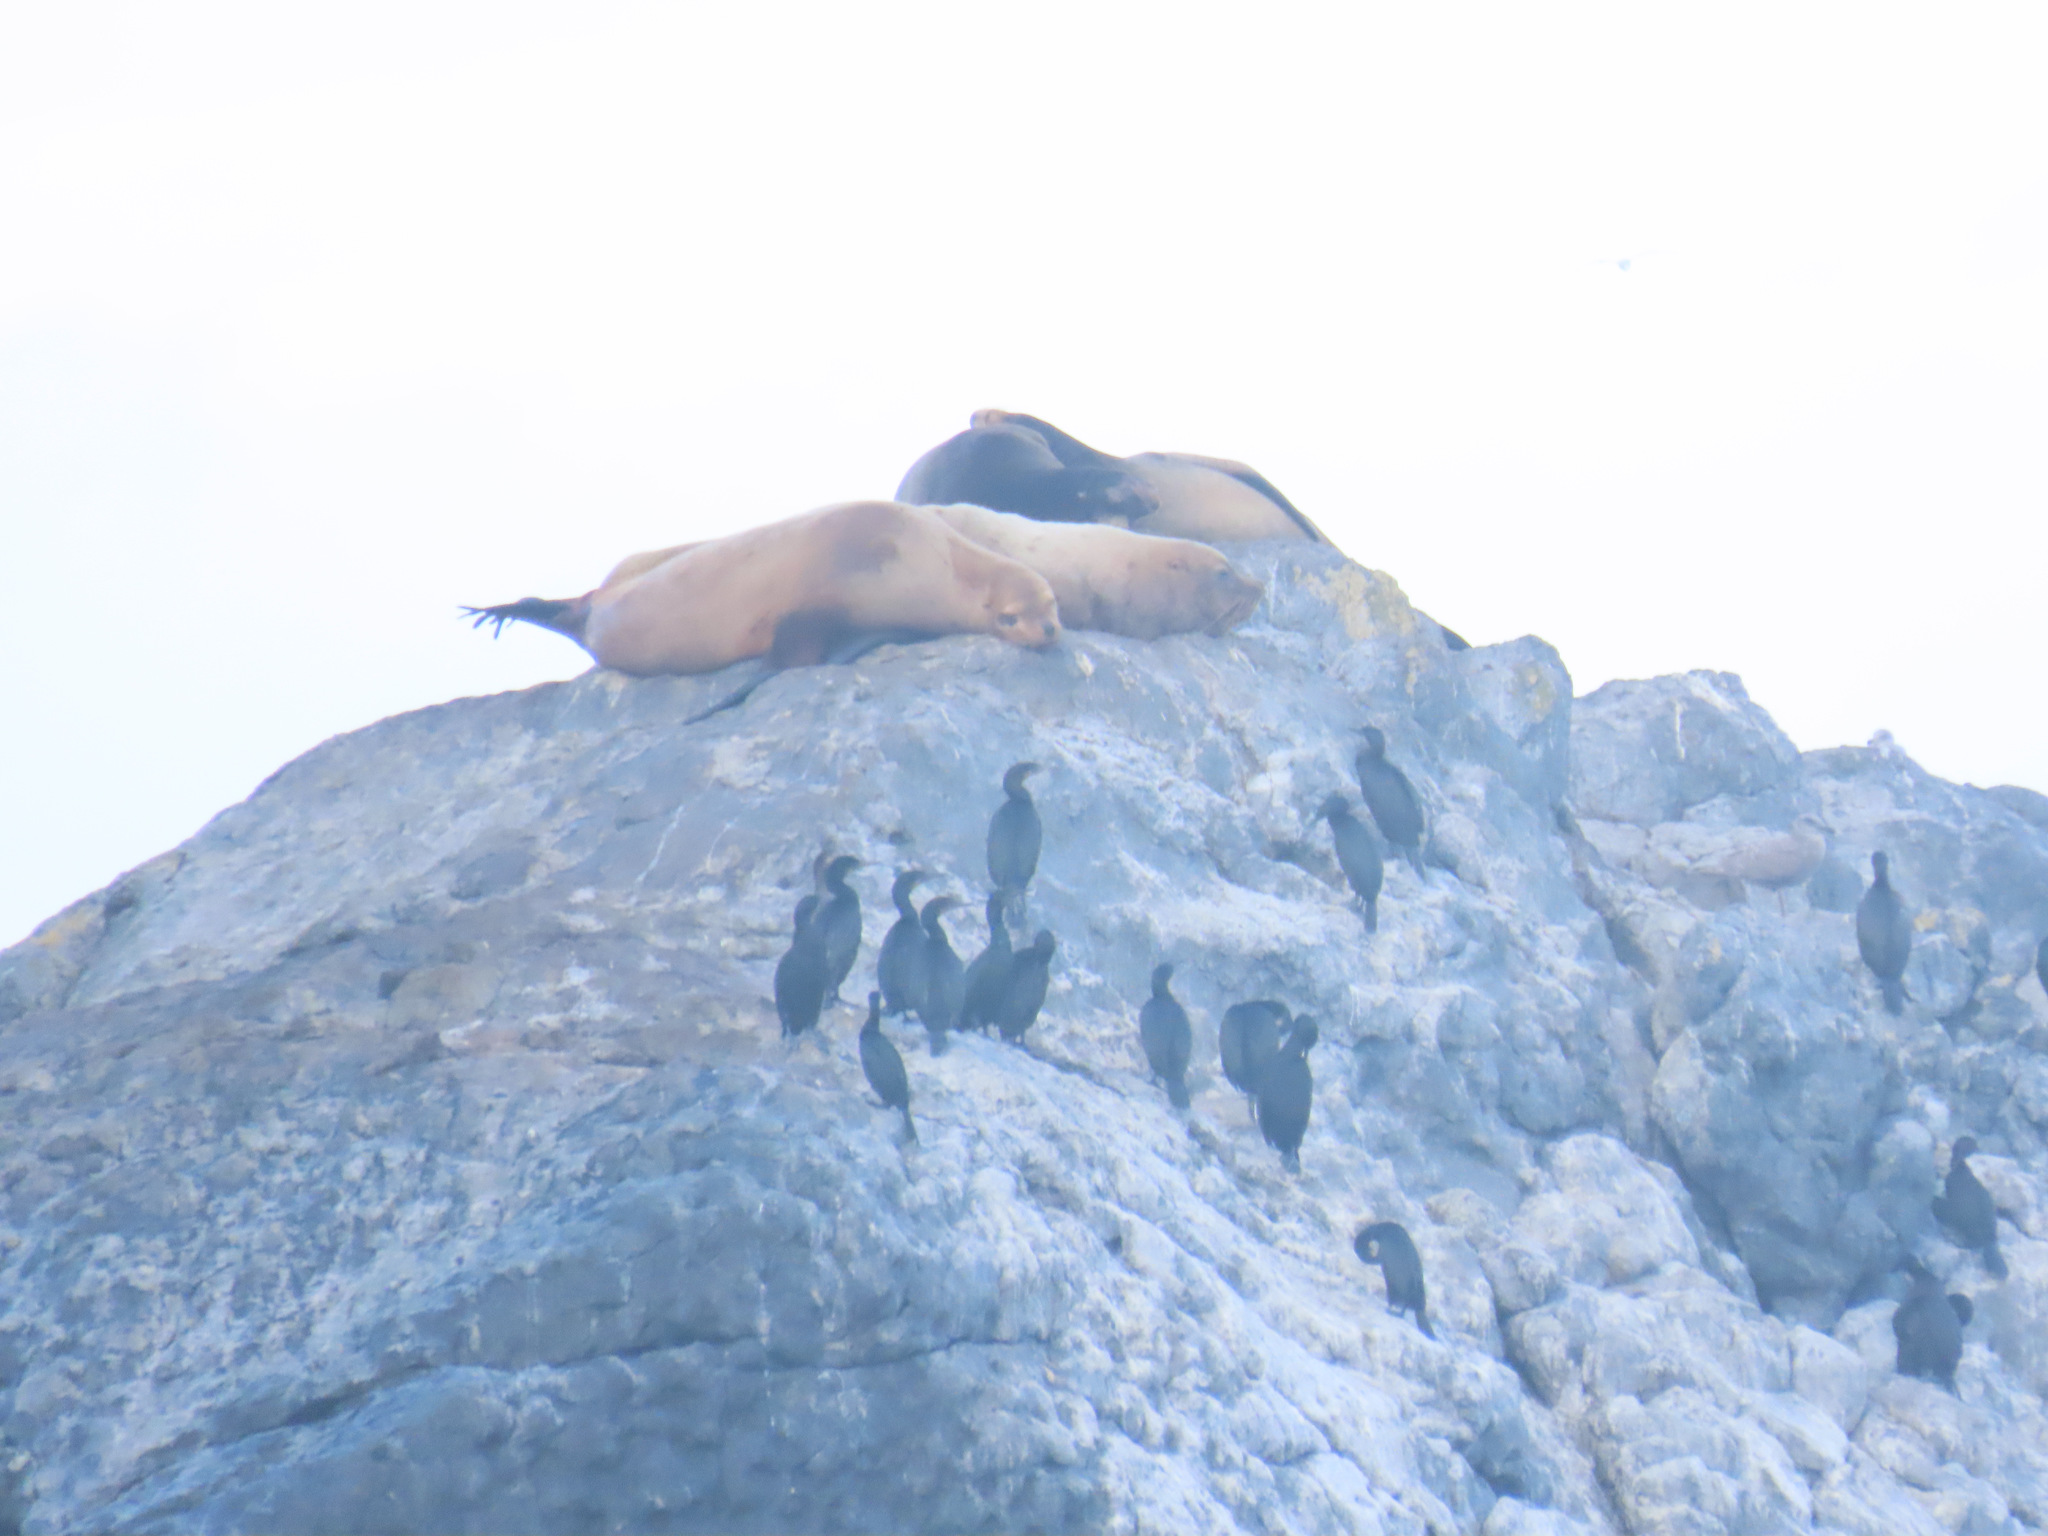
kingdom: Animalia
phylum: Chordata
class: Mammalia
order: Carnivora
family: Otariidae
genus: Eumetopias
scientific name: Eumetopias jubatus
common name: Steller sea lion
